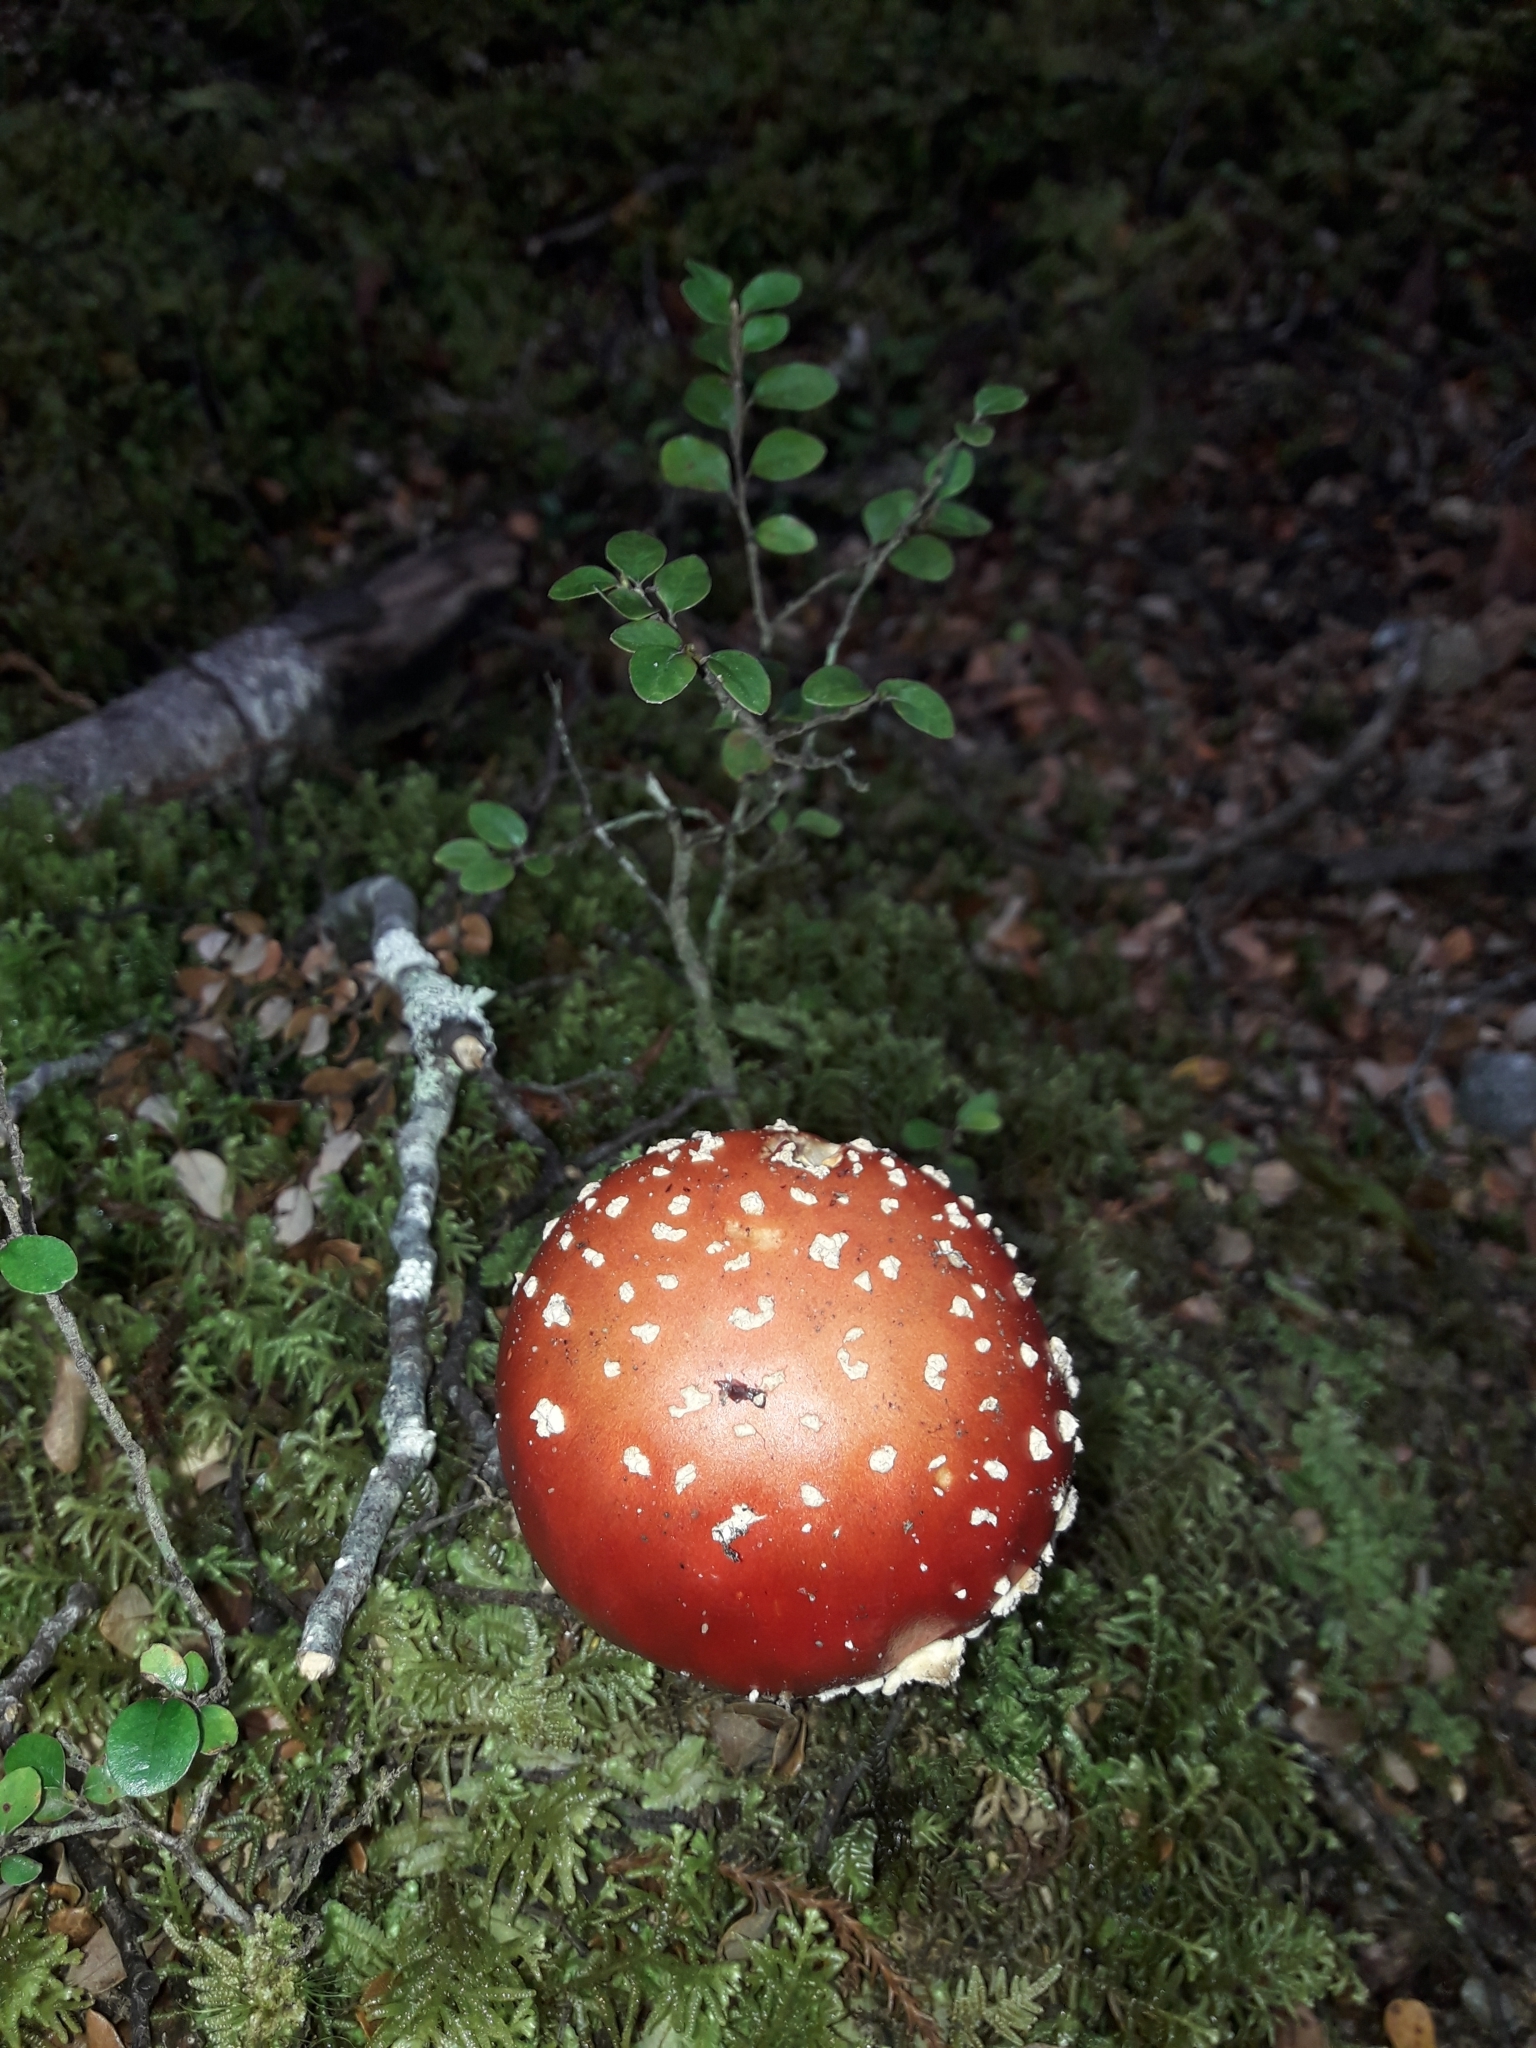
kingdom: Fungi
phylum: Basidiomycota
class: Agaricomycetes
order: Agaricales
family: Amanitaceae
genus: Amanita
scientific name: Amanita muscaria
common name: Fly agaric
